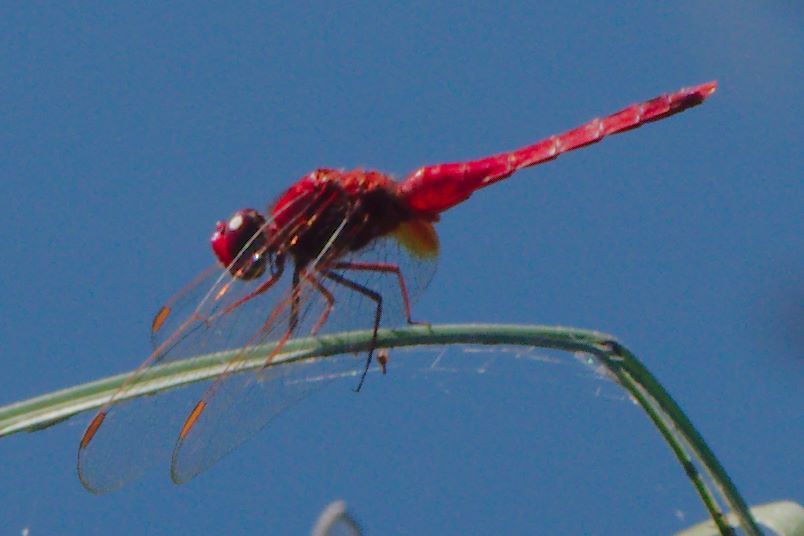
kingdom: Animalia
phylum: Arthropoda
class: Insecta
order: Odonata
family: Libellulidae
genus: Crocothemis
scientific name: Crocothemis servilia
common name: Scarlet skimmer
